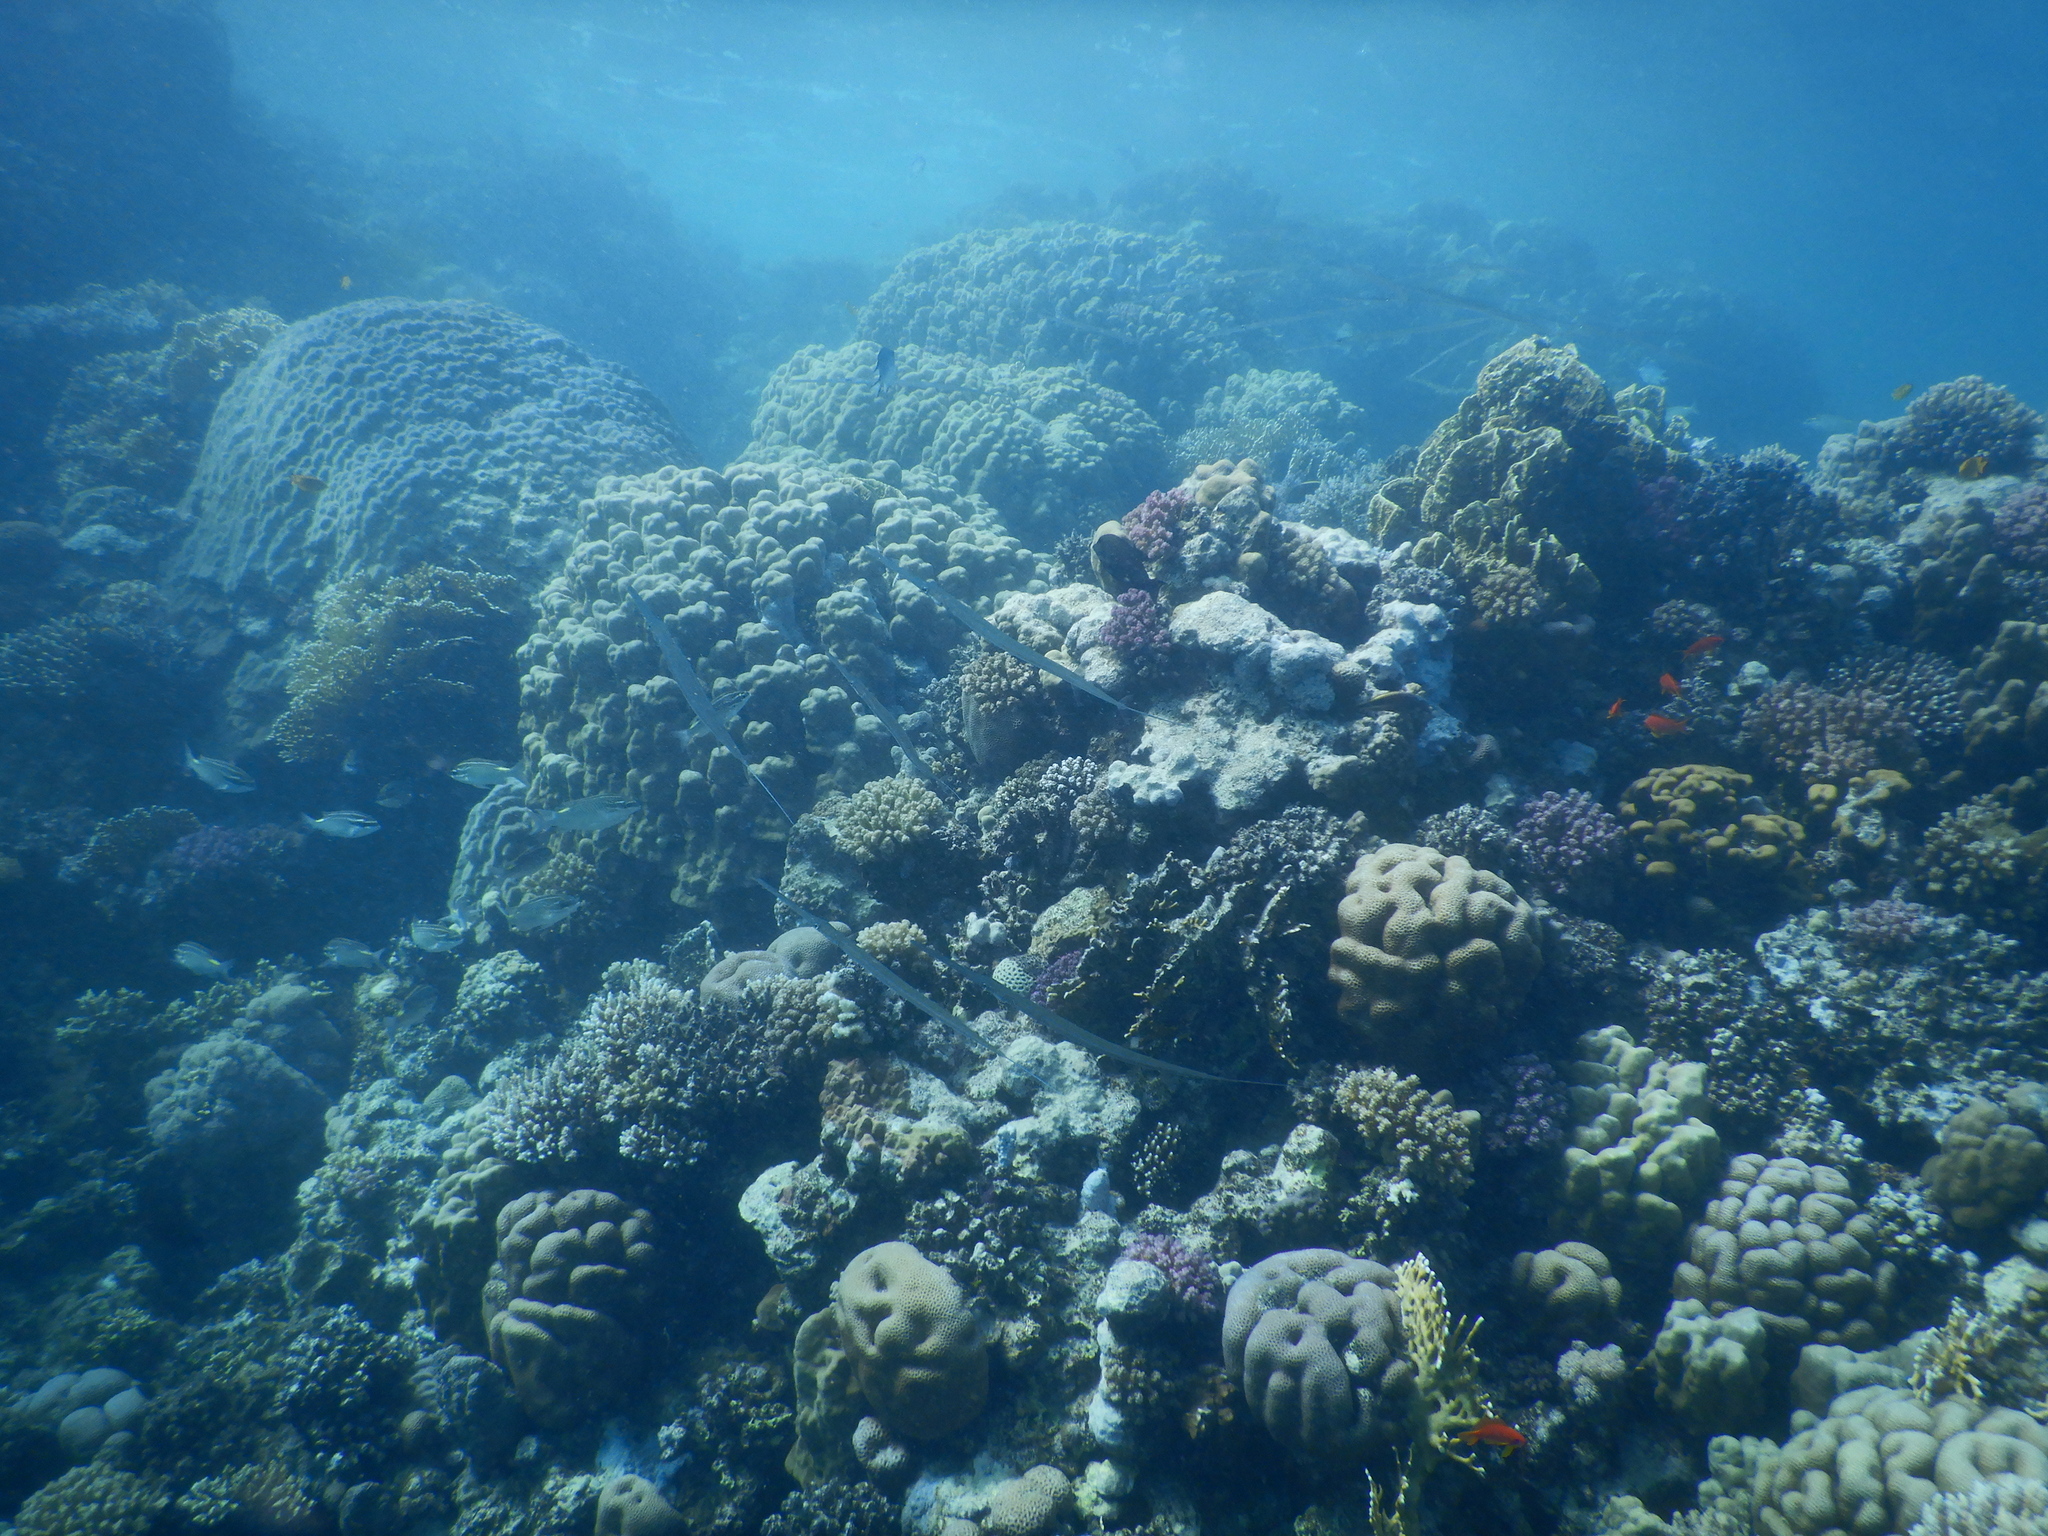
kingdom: Animalia
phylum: Chordata
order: Syngnathiformes
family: Fistulariidae
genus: Fistularia
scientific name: Fistularia commersonii
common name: Bluespotted cornetfish
